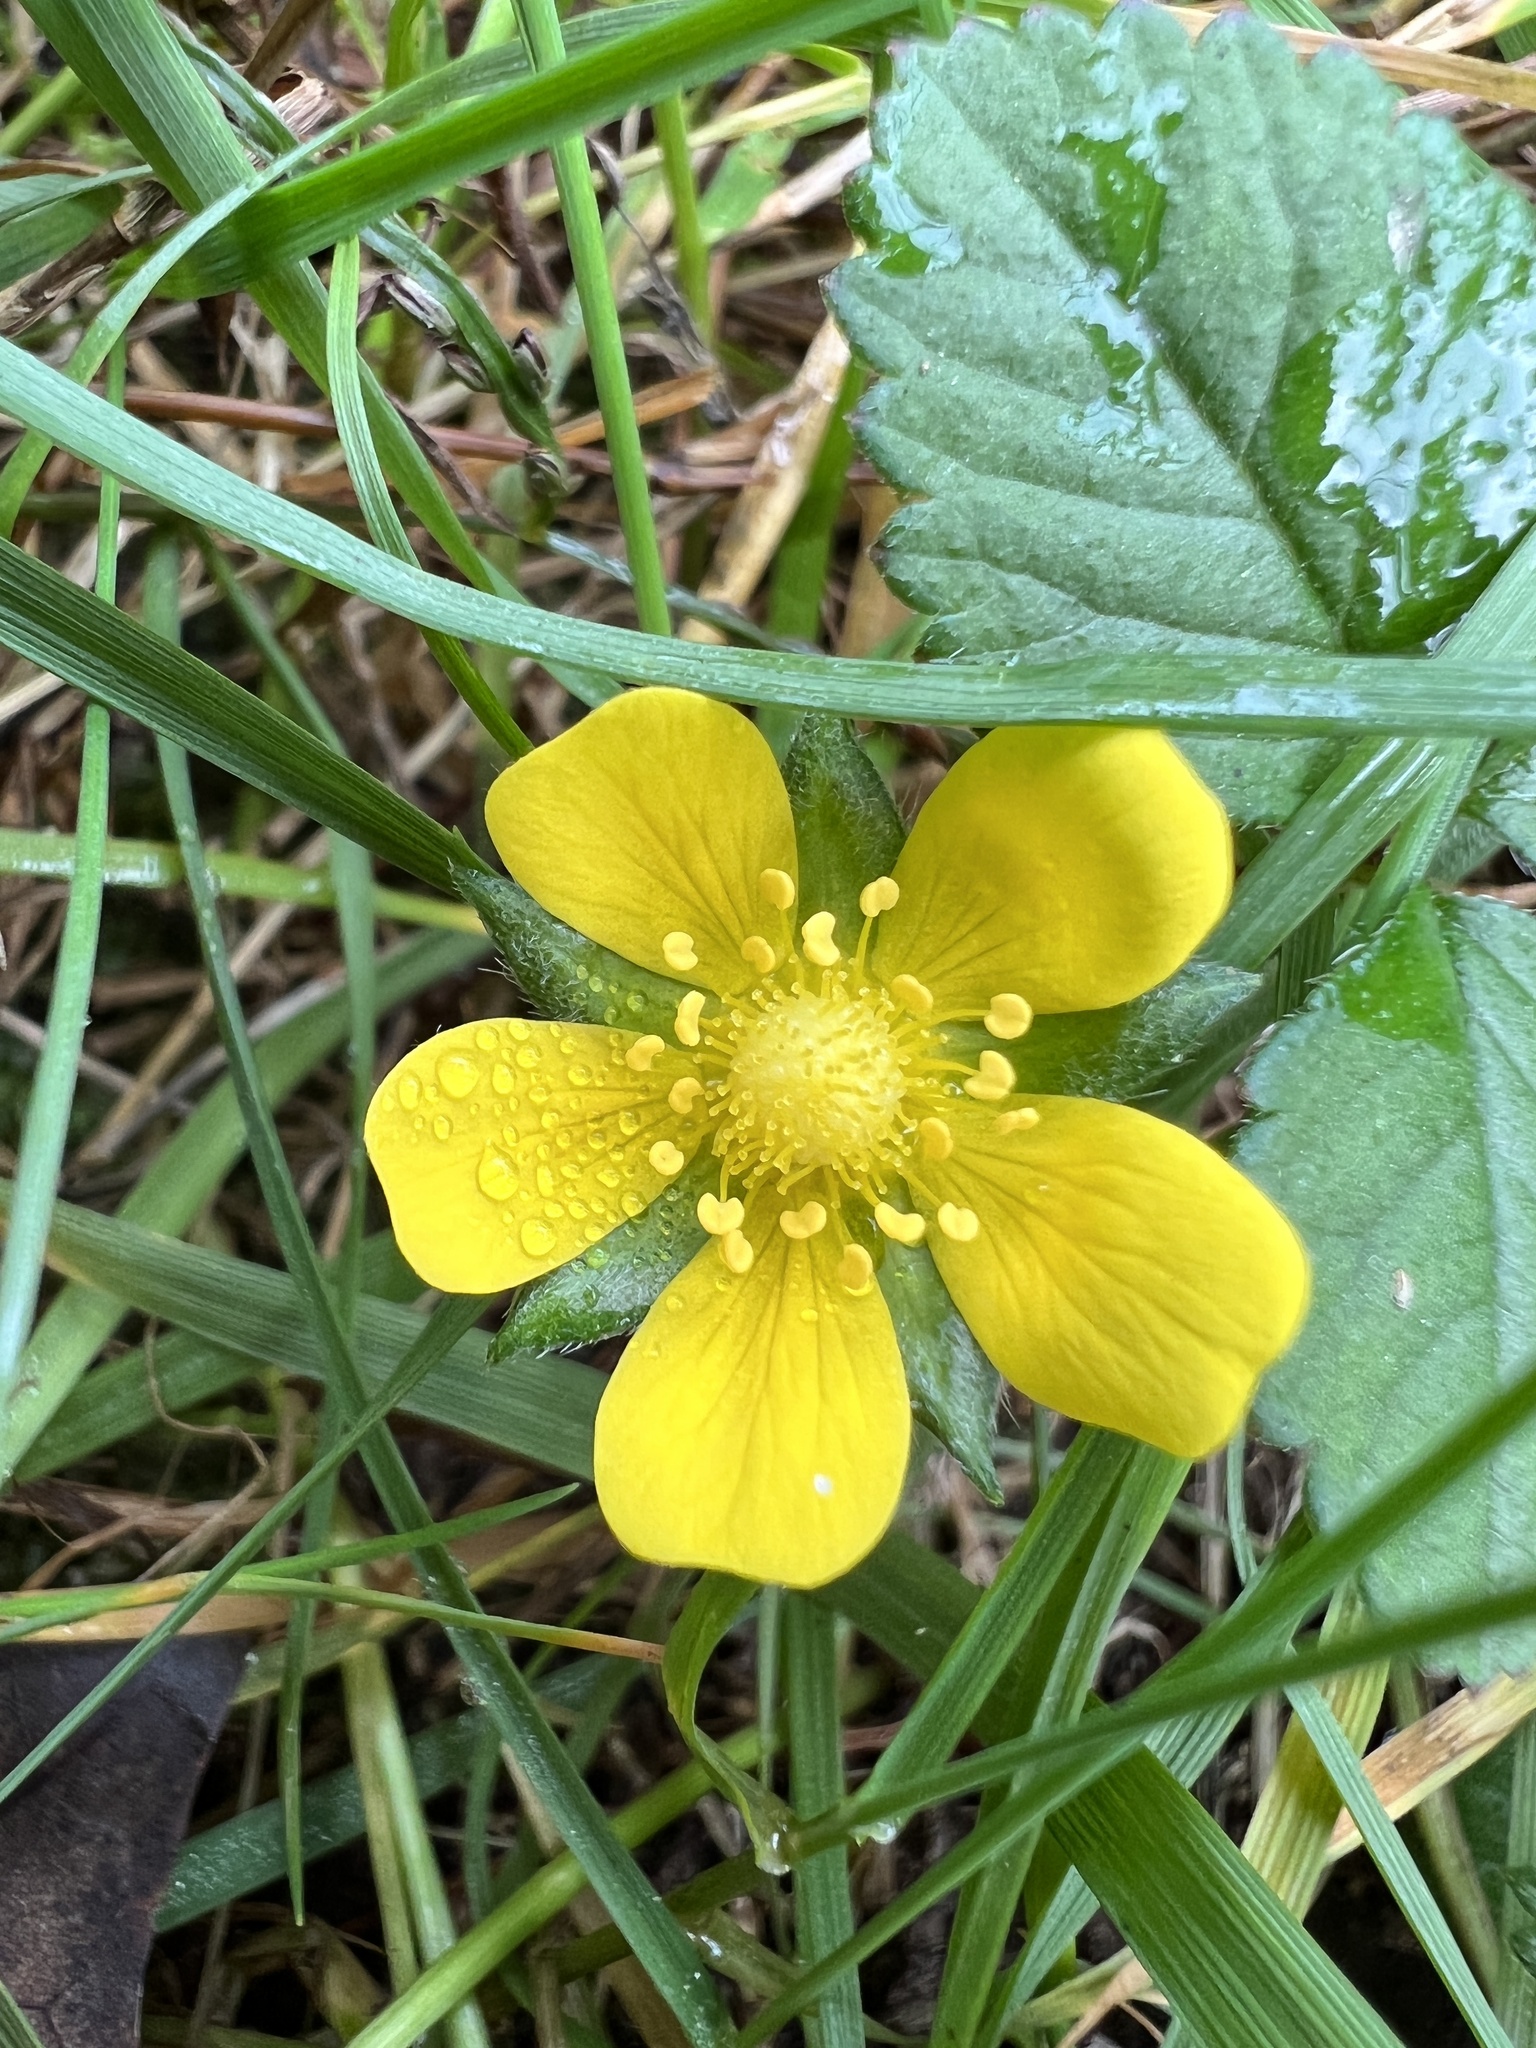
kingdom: Plantae
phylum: Tracheophyta
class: Magnoliopsida
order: Rosales
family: Rosaceae
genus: Potentilla
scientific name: Potentilla indica
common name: Yellow-flowered strawberry
